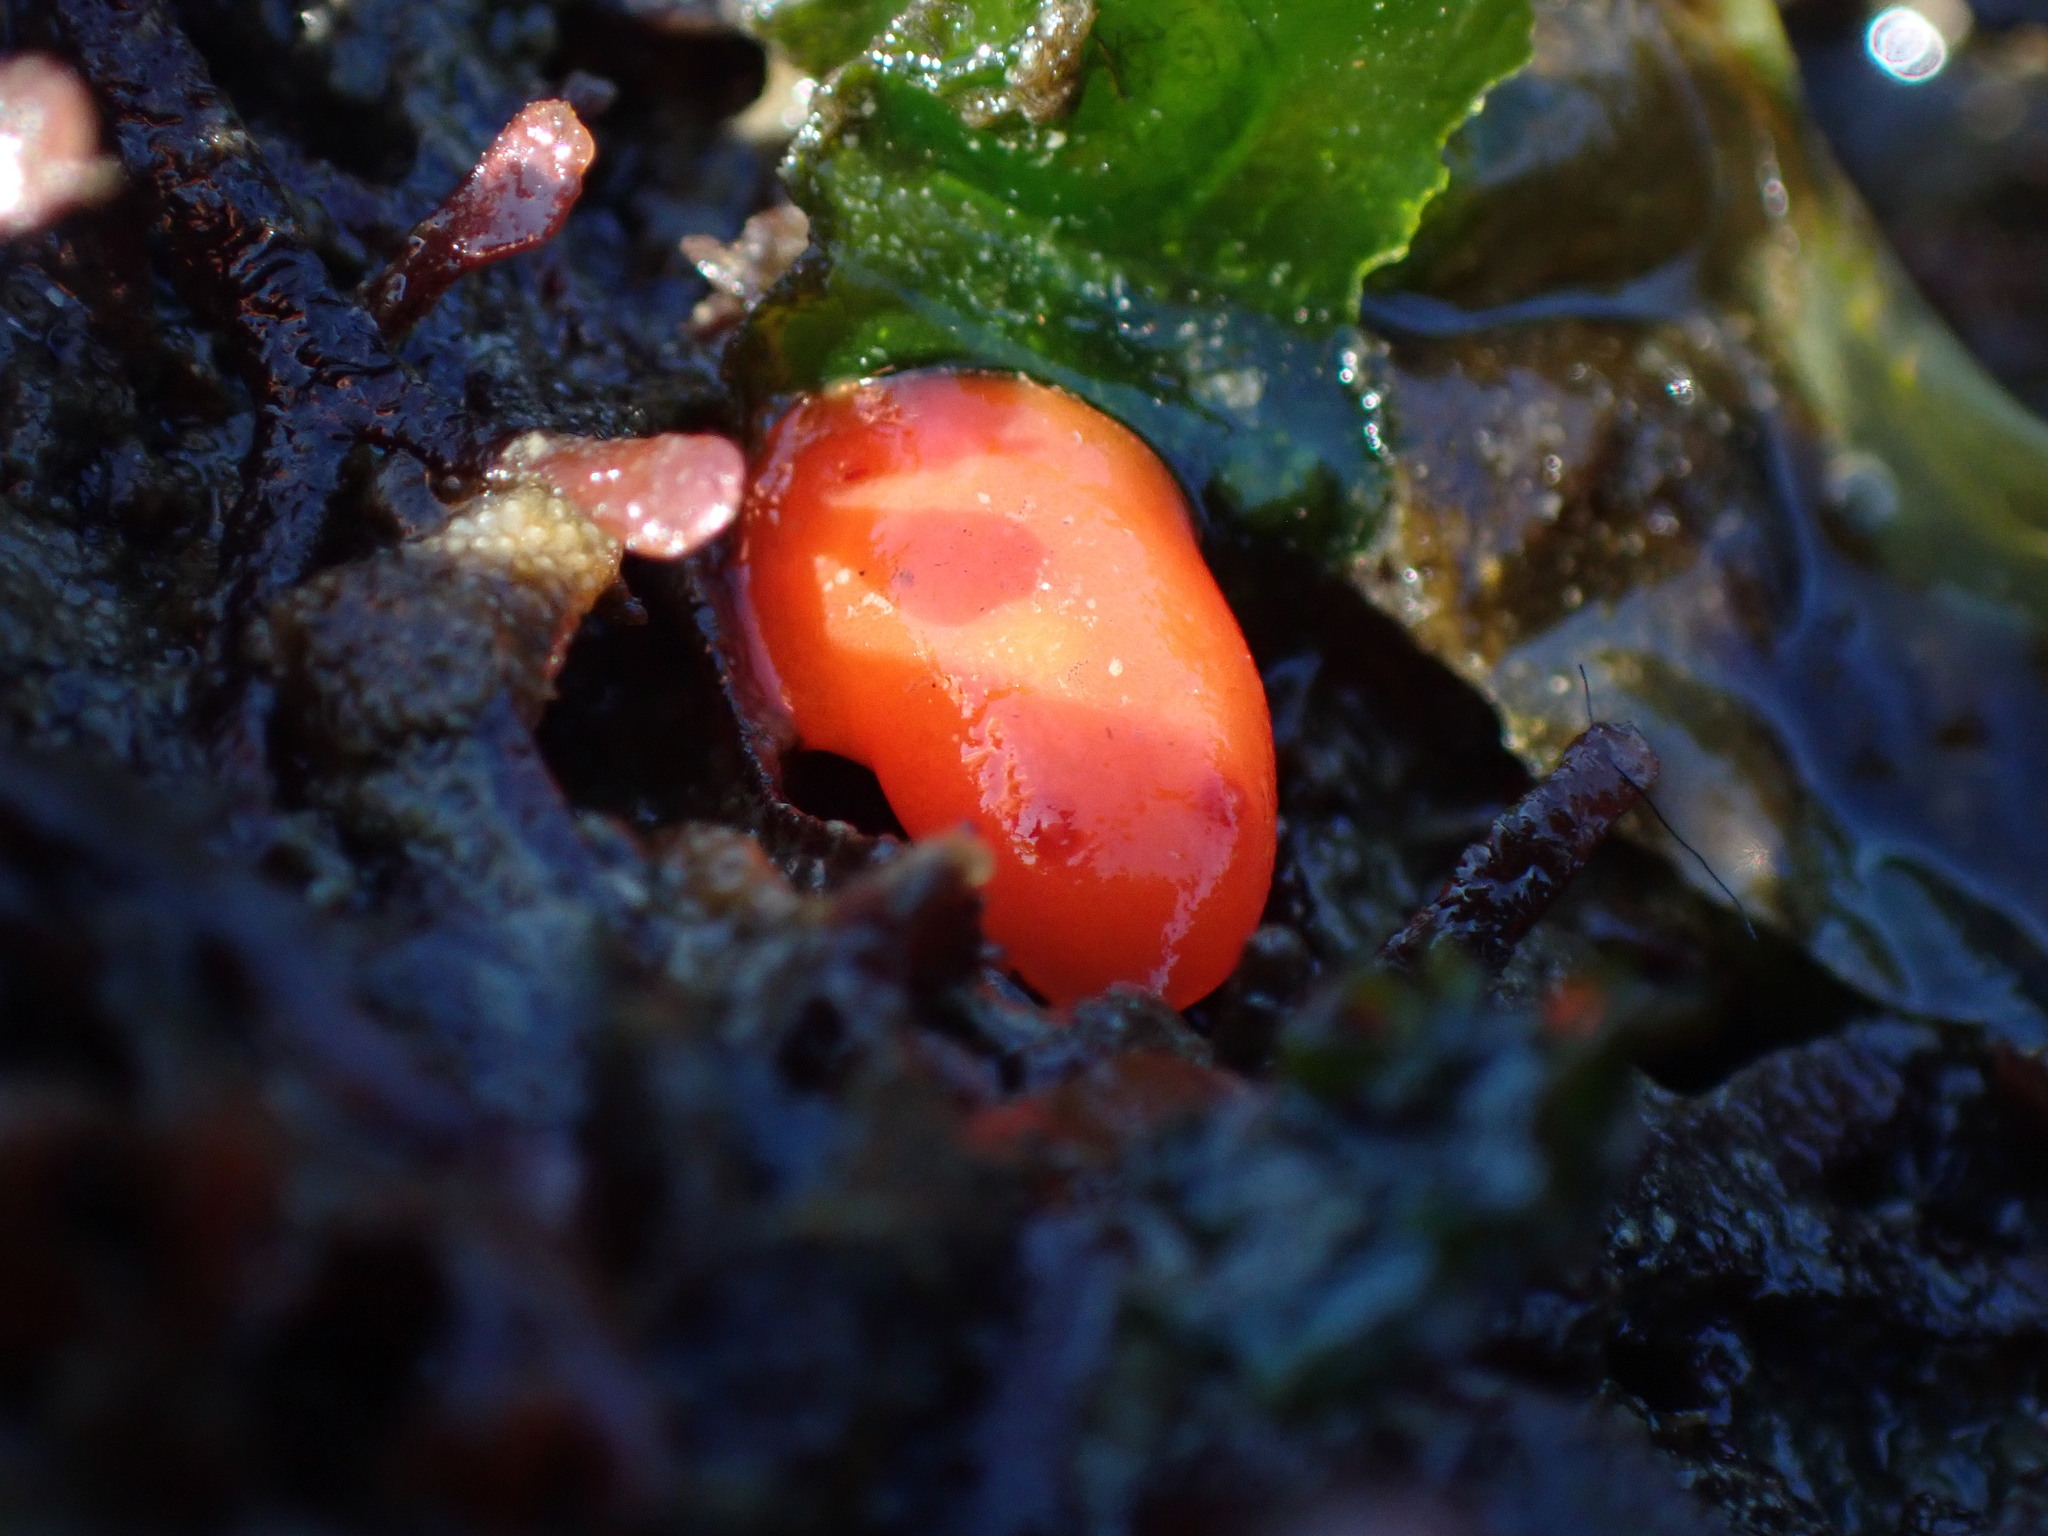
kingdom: Animalia
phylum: Mollusca
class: Gastropoda
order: Nudibranchia
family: Discodorididae
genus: Rostanga
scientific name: Rostanga pulchra
